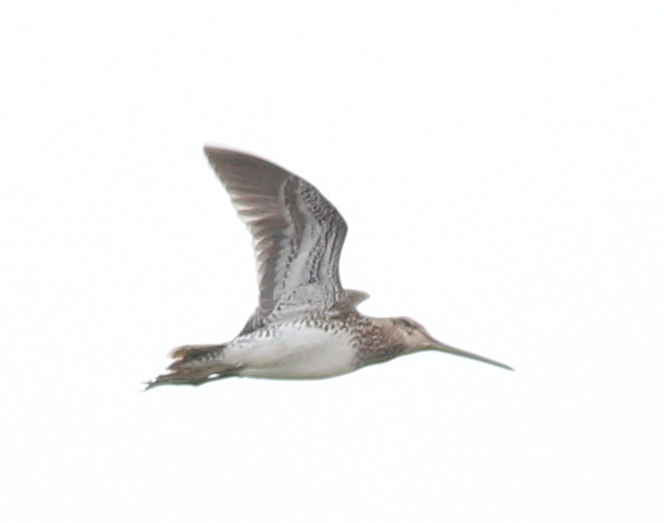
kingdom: Animalia
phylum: Chordata
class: Aves
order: Charadriiformes
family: Scolopacidae
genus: Gallinago
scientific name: Gallinago paraguaiae
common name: South american snipe
